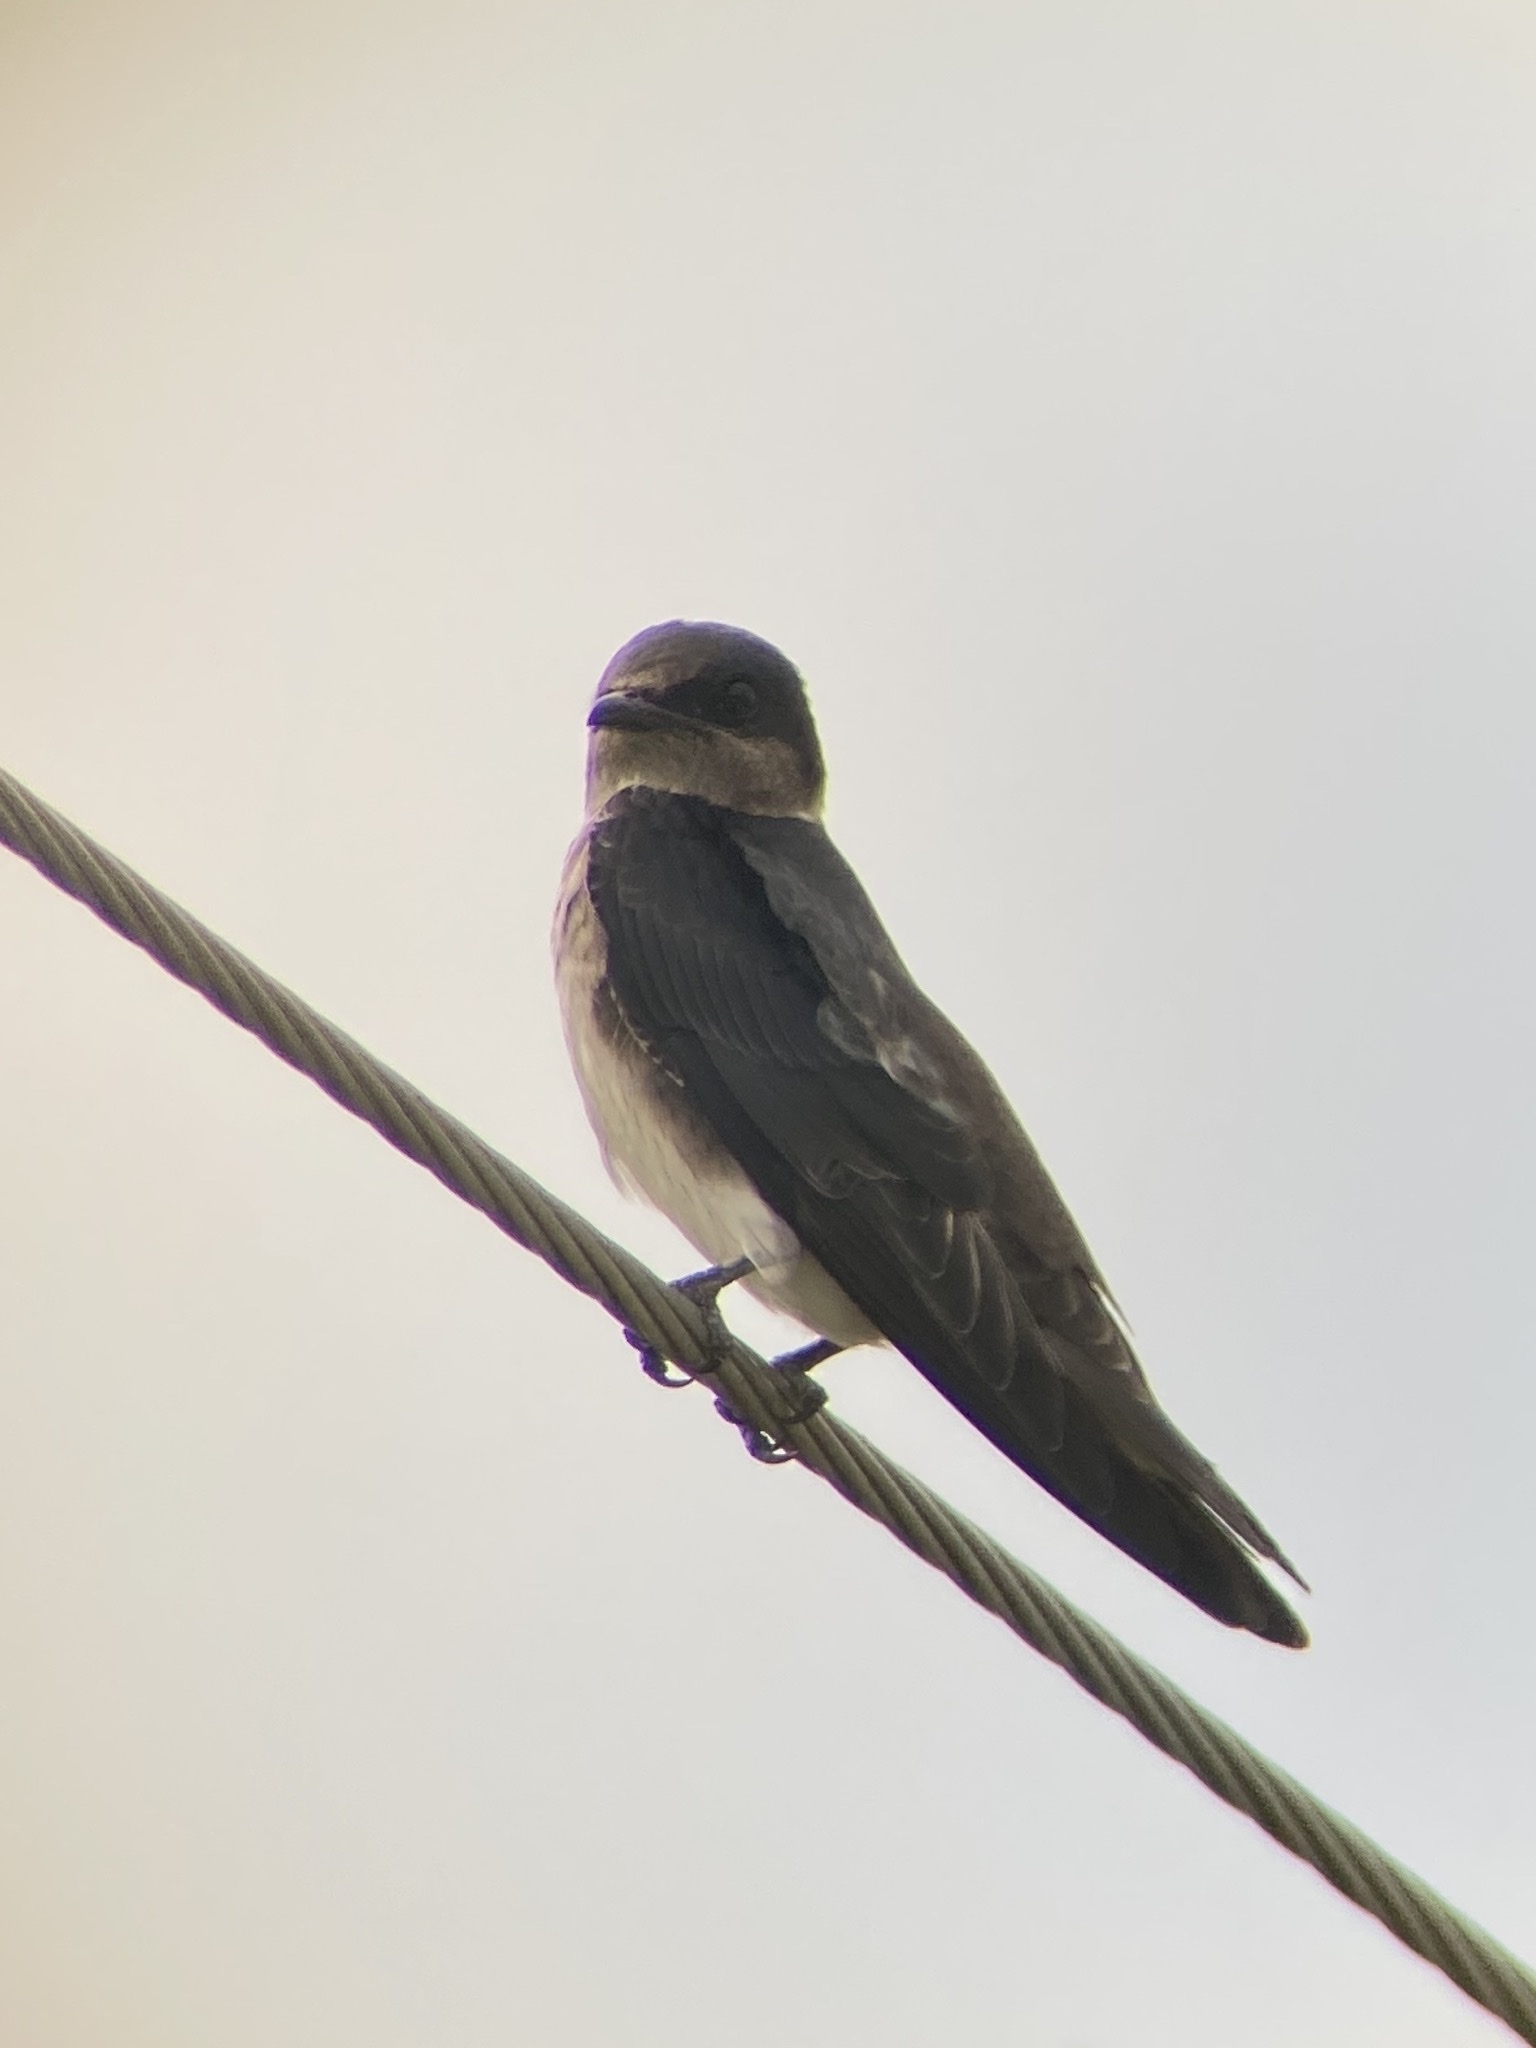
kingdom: Animalia
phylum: Chordata
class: Aves
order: Passeriformes
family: Hirundinidae
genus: Progne
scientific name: Progne subis
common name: Purple martin
